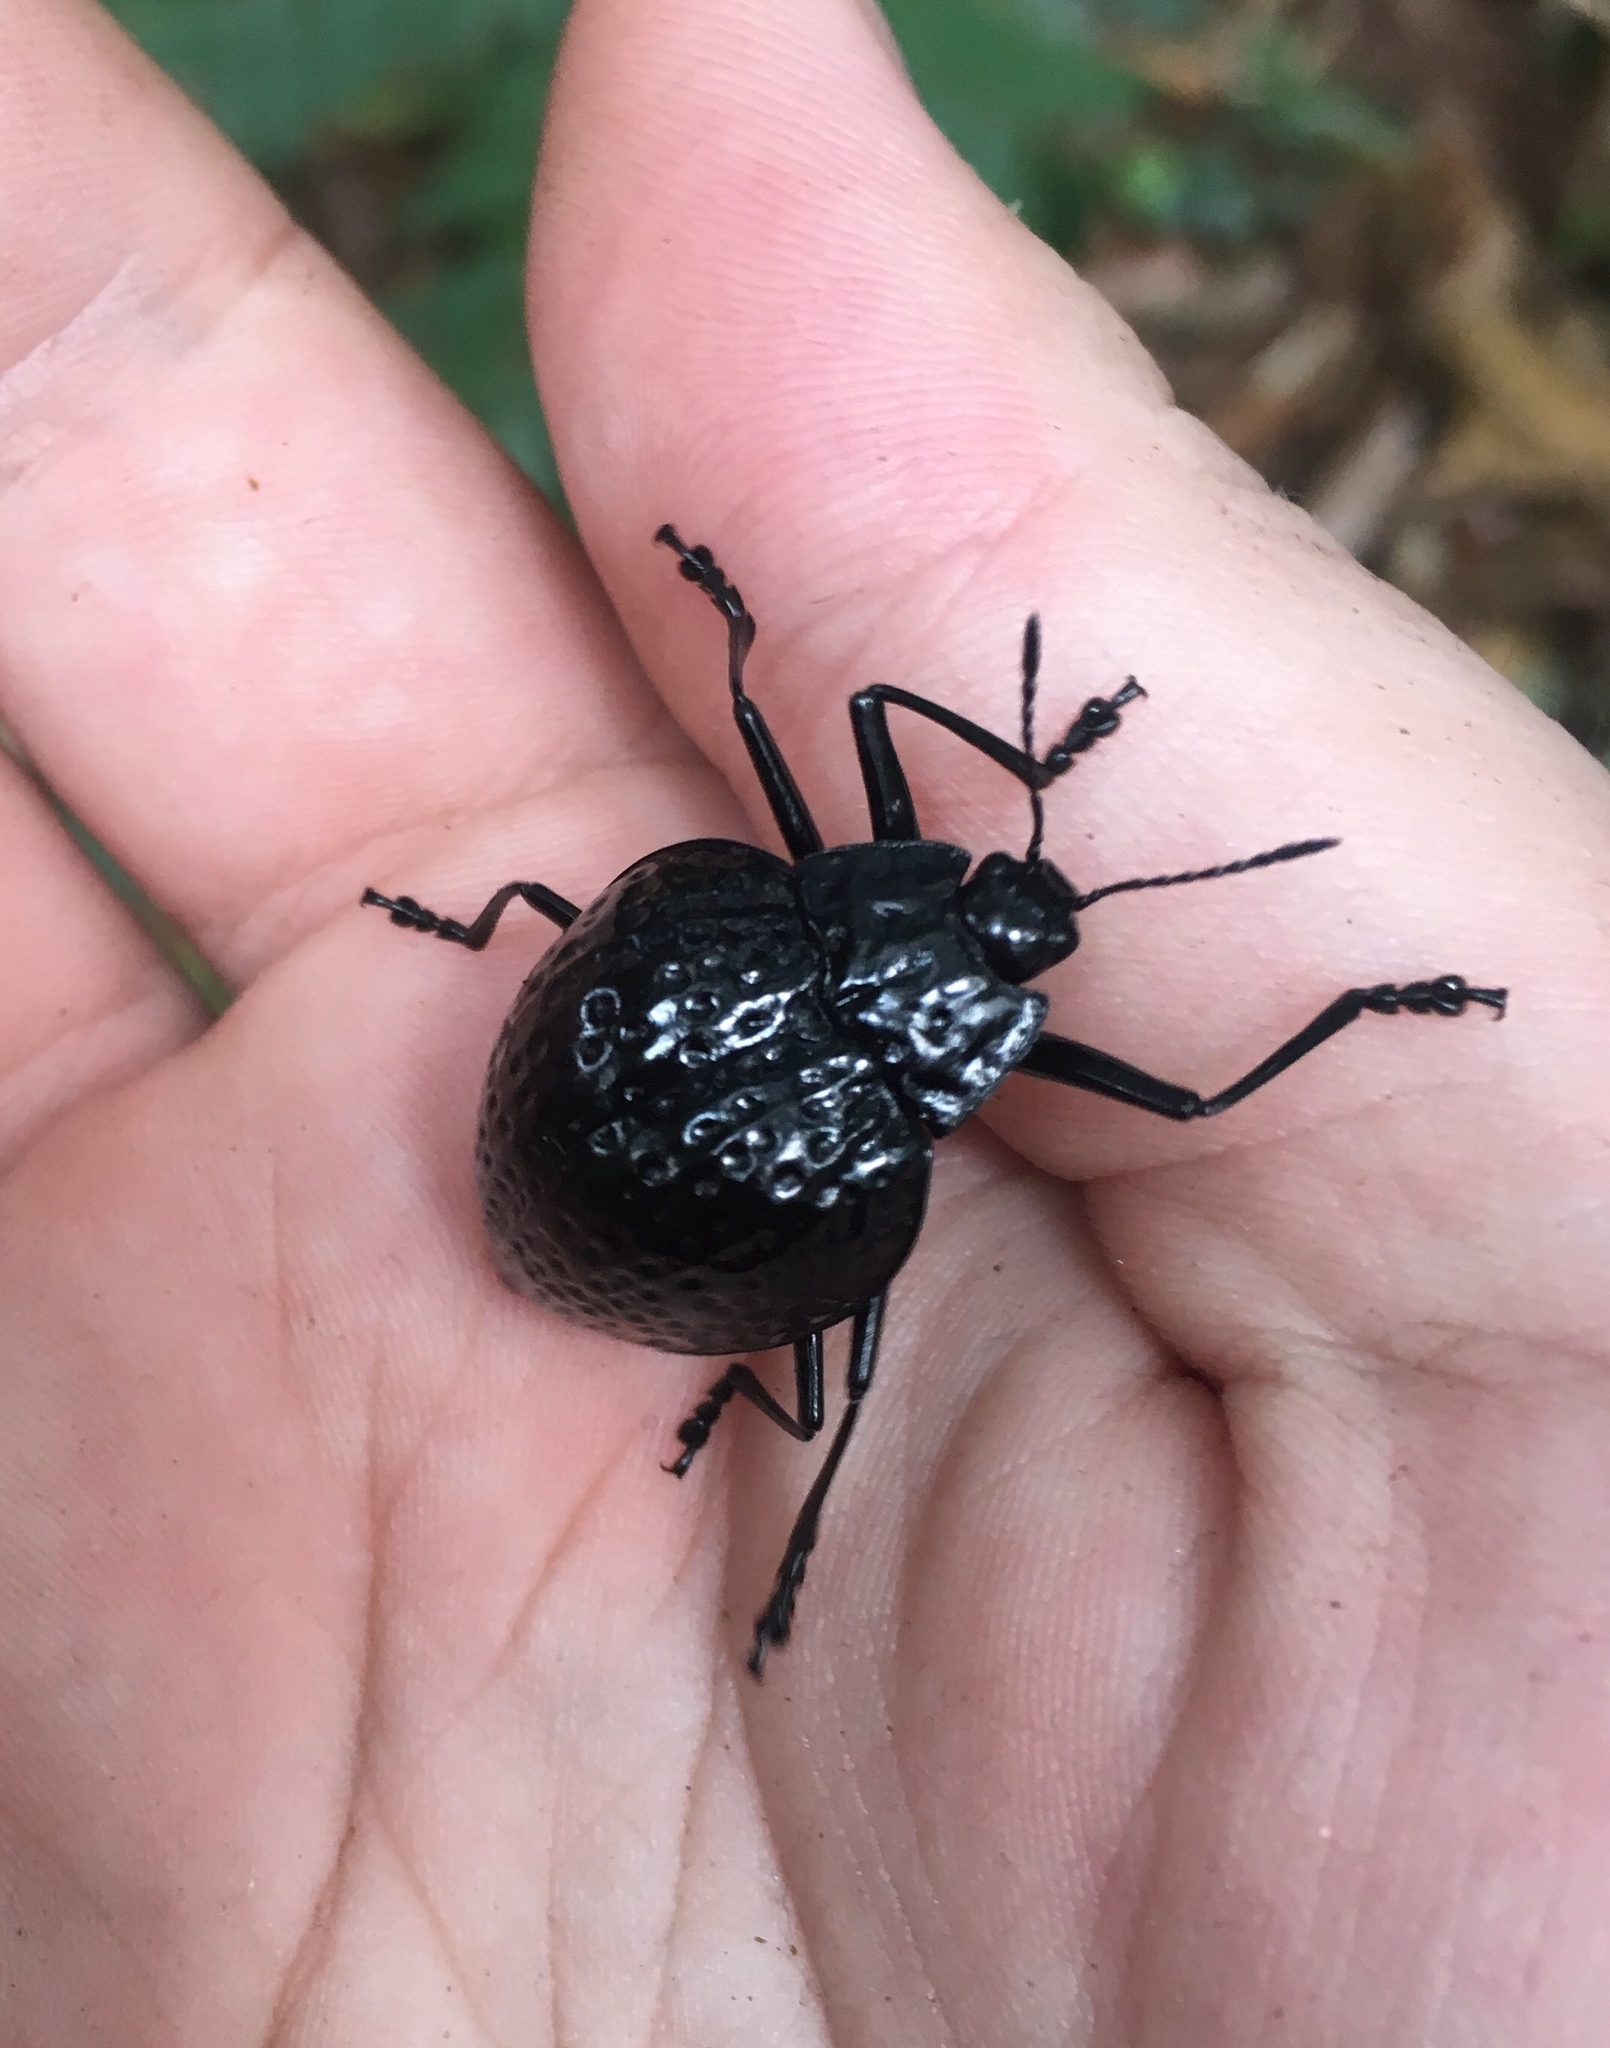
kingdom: Animalia
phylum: Arthropoda
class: Insecta
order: Coleoptera
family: Erotylidae
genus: Erotylus
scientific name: Erotylus
